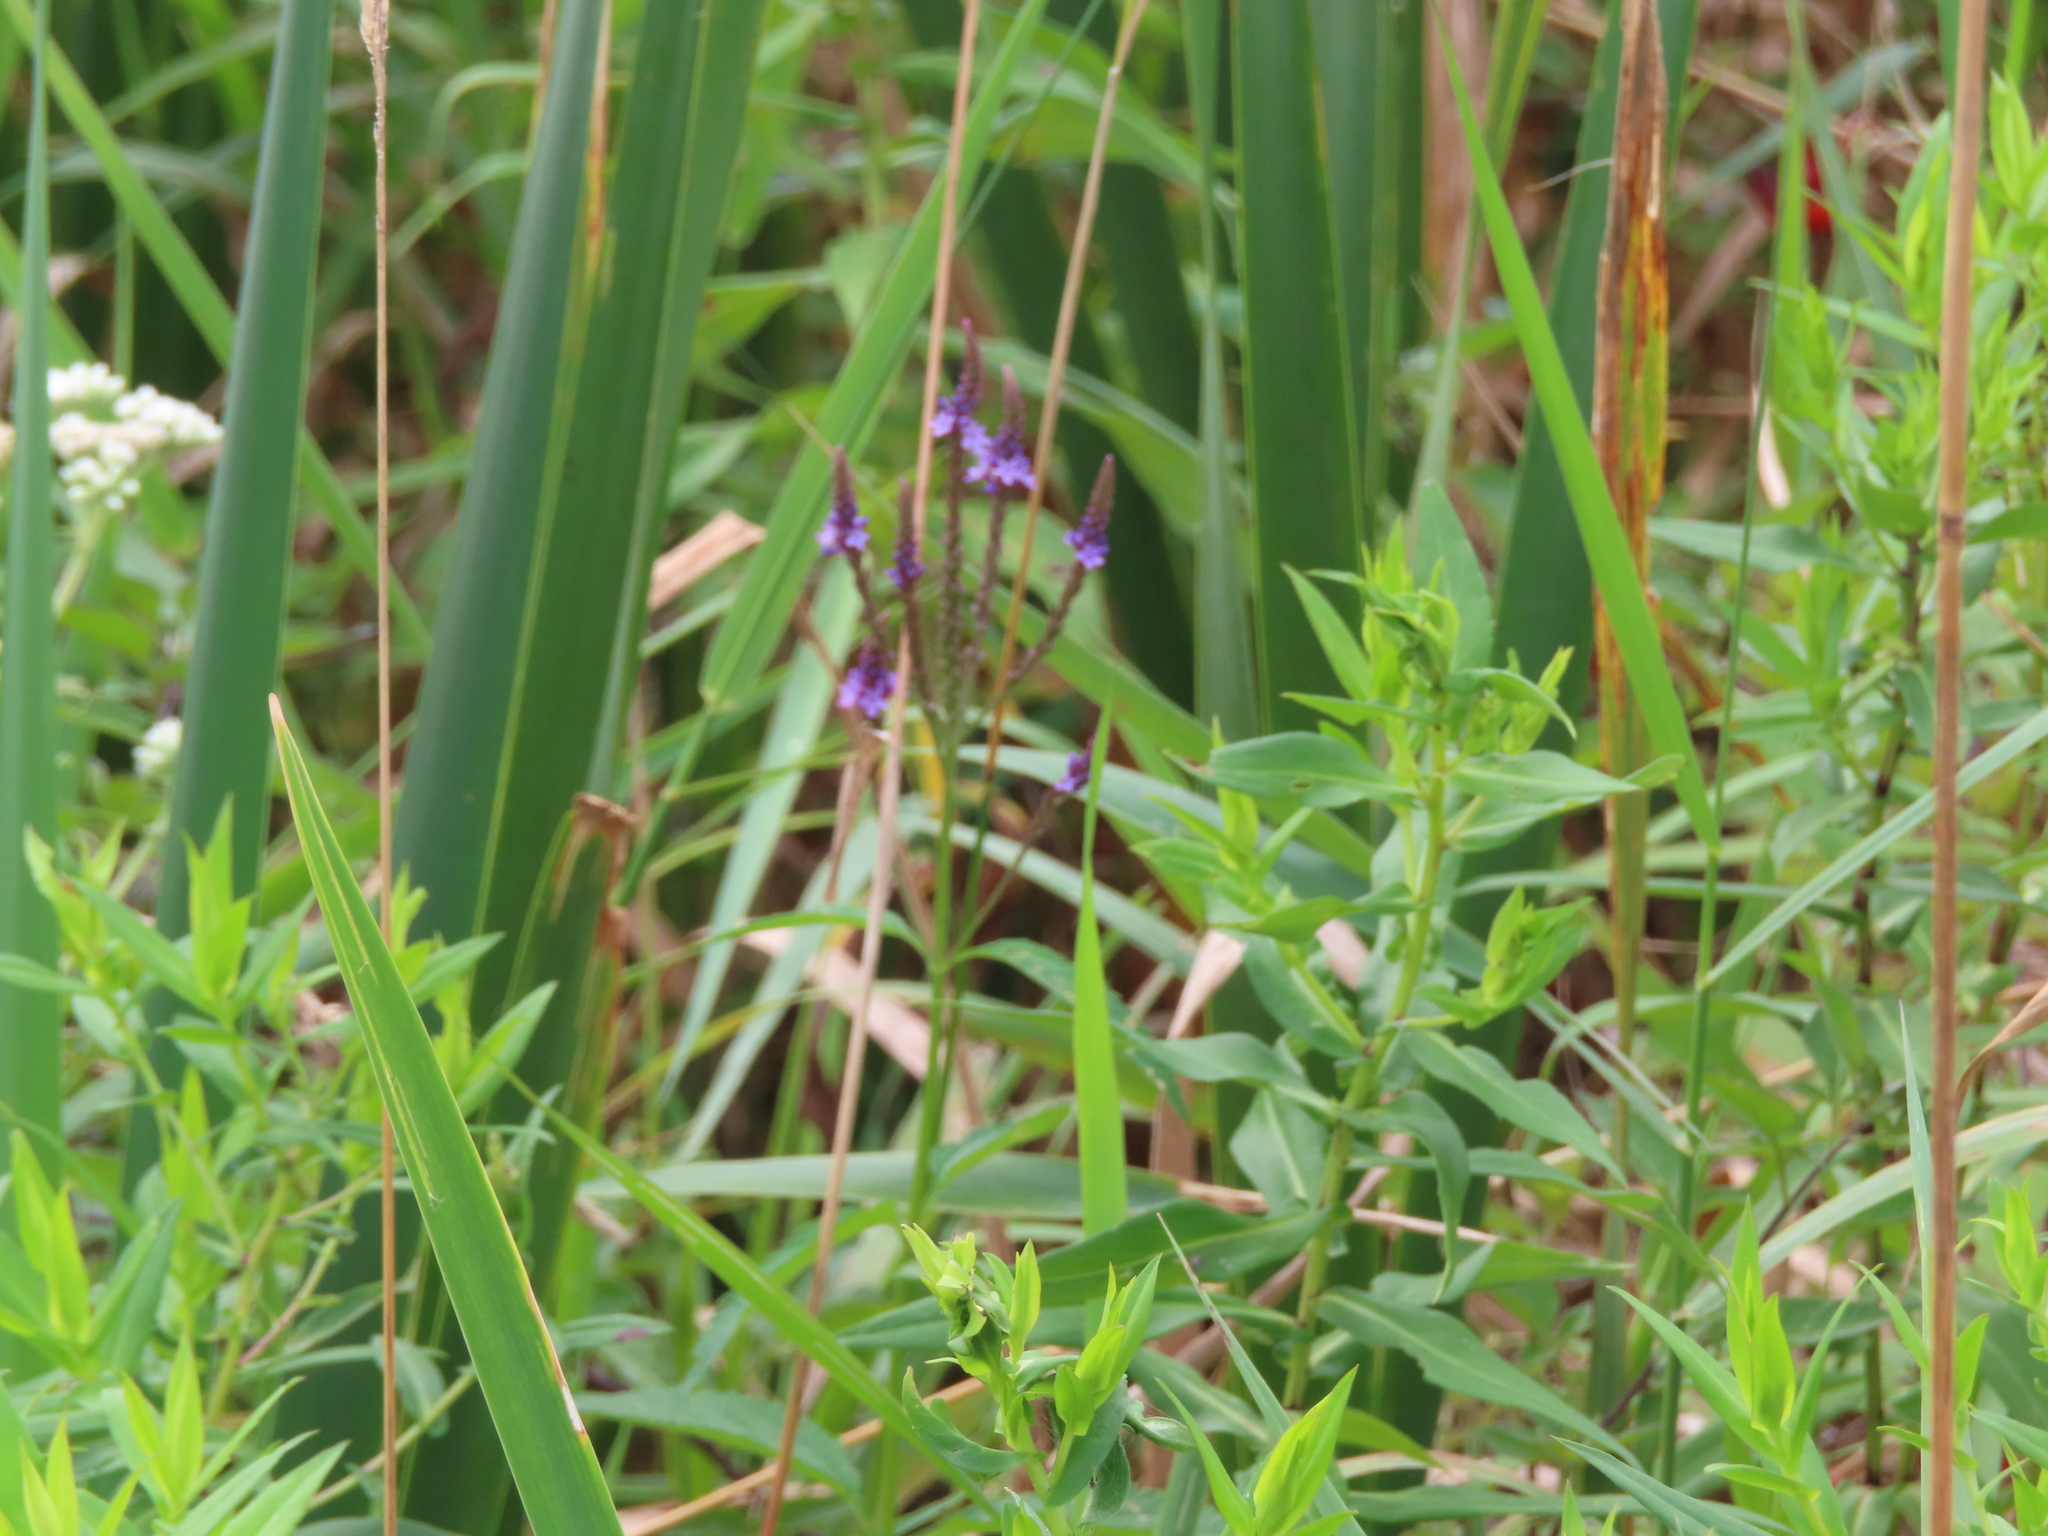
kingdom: Plantae
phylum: Tracheophyta
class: Magnoliopsida
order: Lamiales
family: Verbenaceae
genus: Verbena
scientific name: Verbena hastata
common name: American blue vervain
